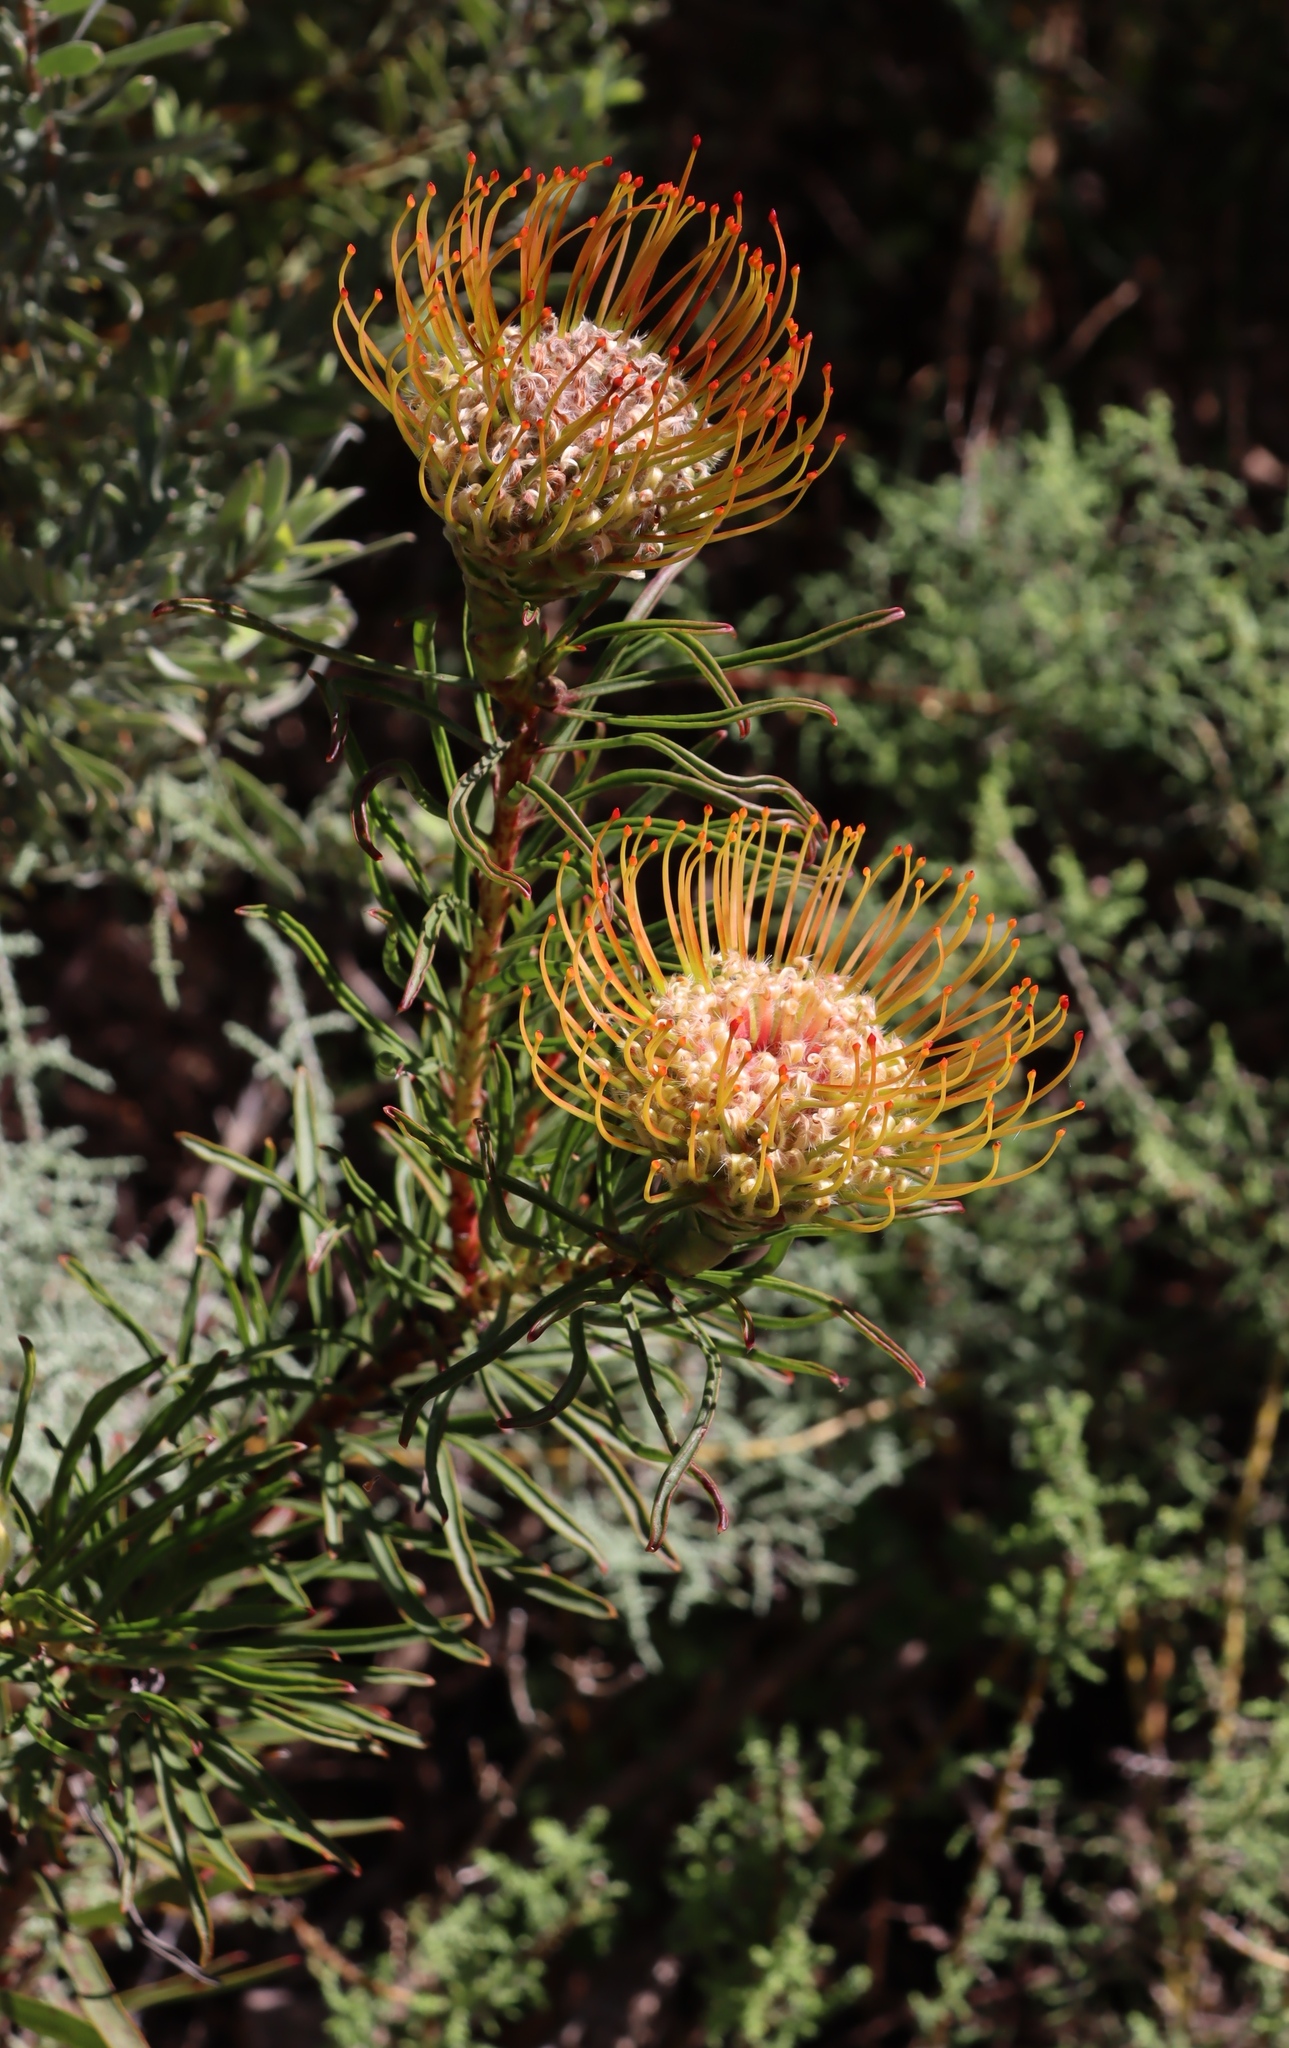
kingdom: Plantae
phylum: Tracheophyta
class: Magnoliopsida
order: Proteales
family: Proteaceae
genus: Leucospermum
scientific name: Leucospermum lineare
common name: Needle-leaf pincushion
